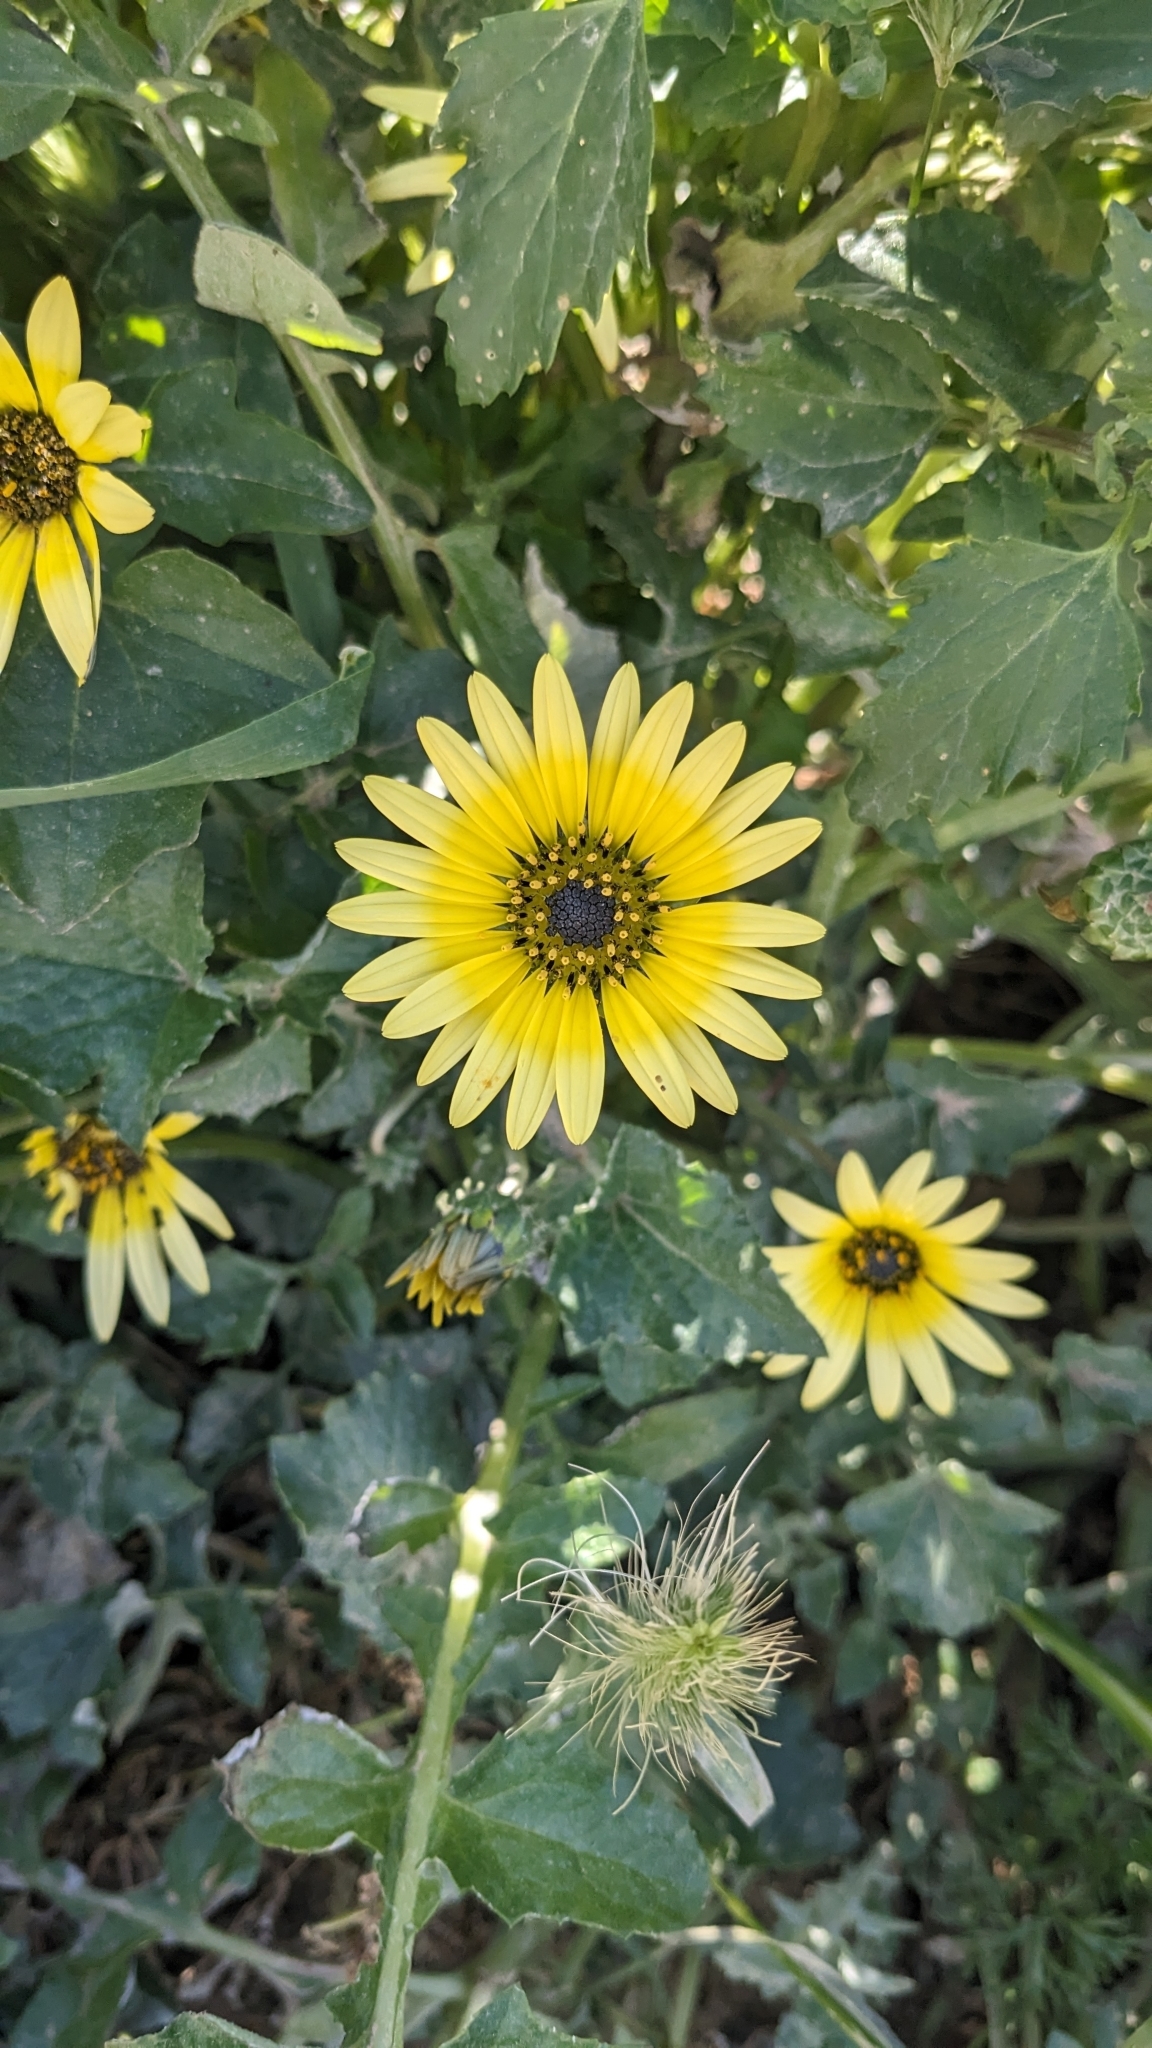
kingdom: Plantae
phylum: Tracheophyta
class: Magnoliopsida
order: Asterales
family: Asteraceae
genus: Arctotheca
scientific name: Arctotheca calendula
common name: Capeweed
